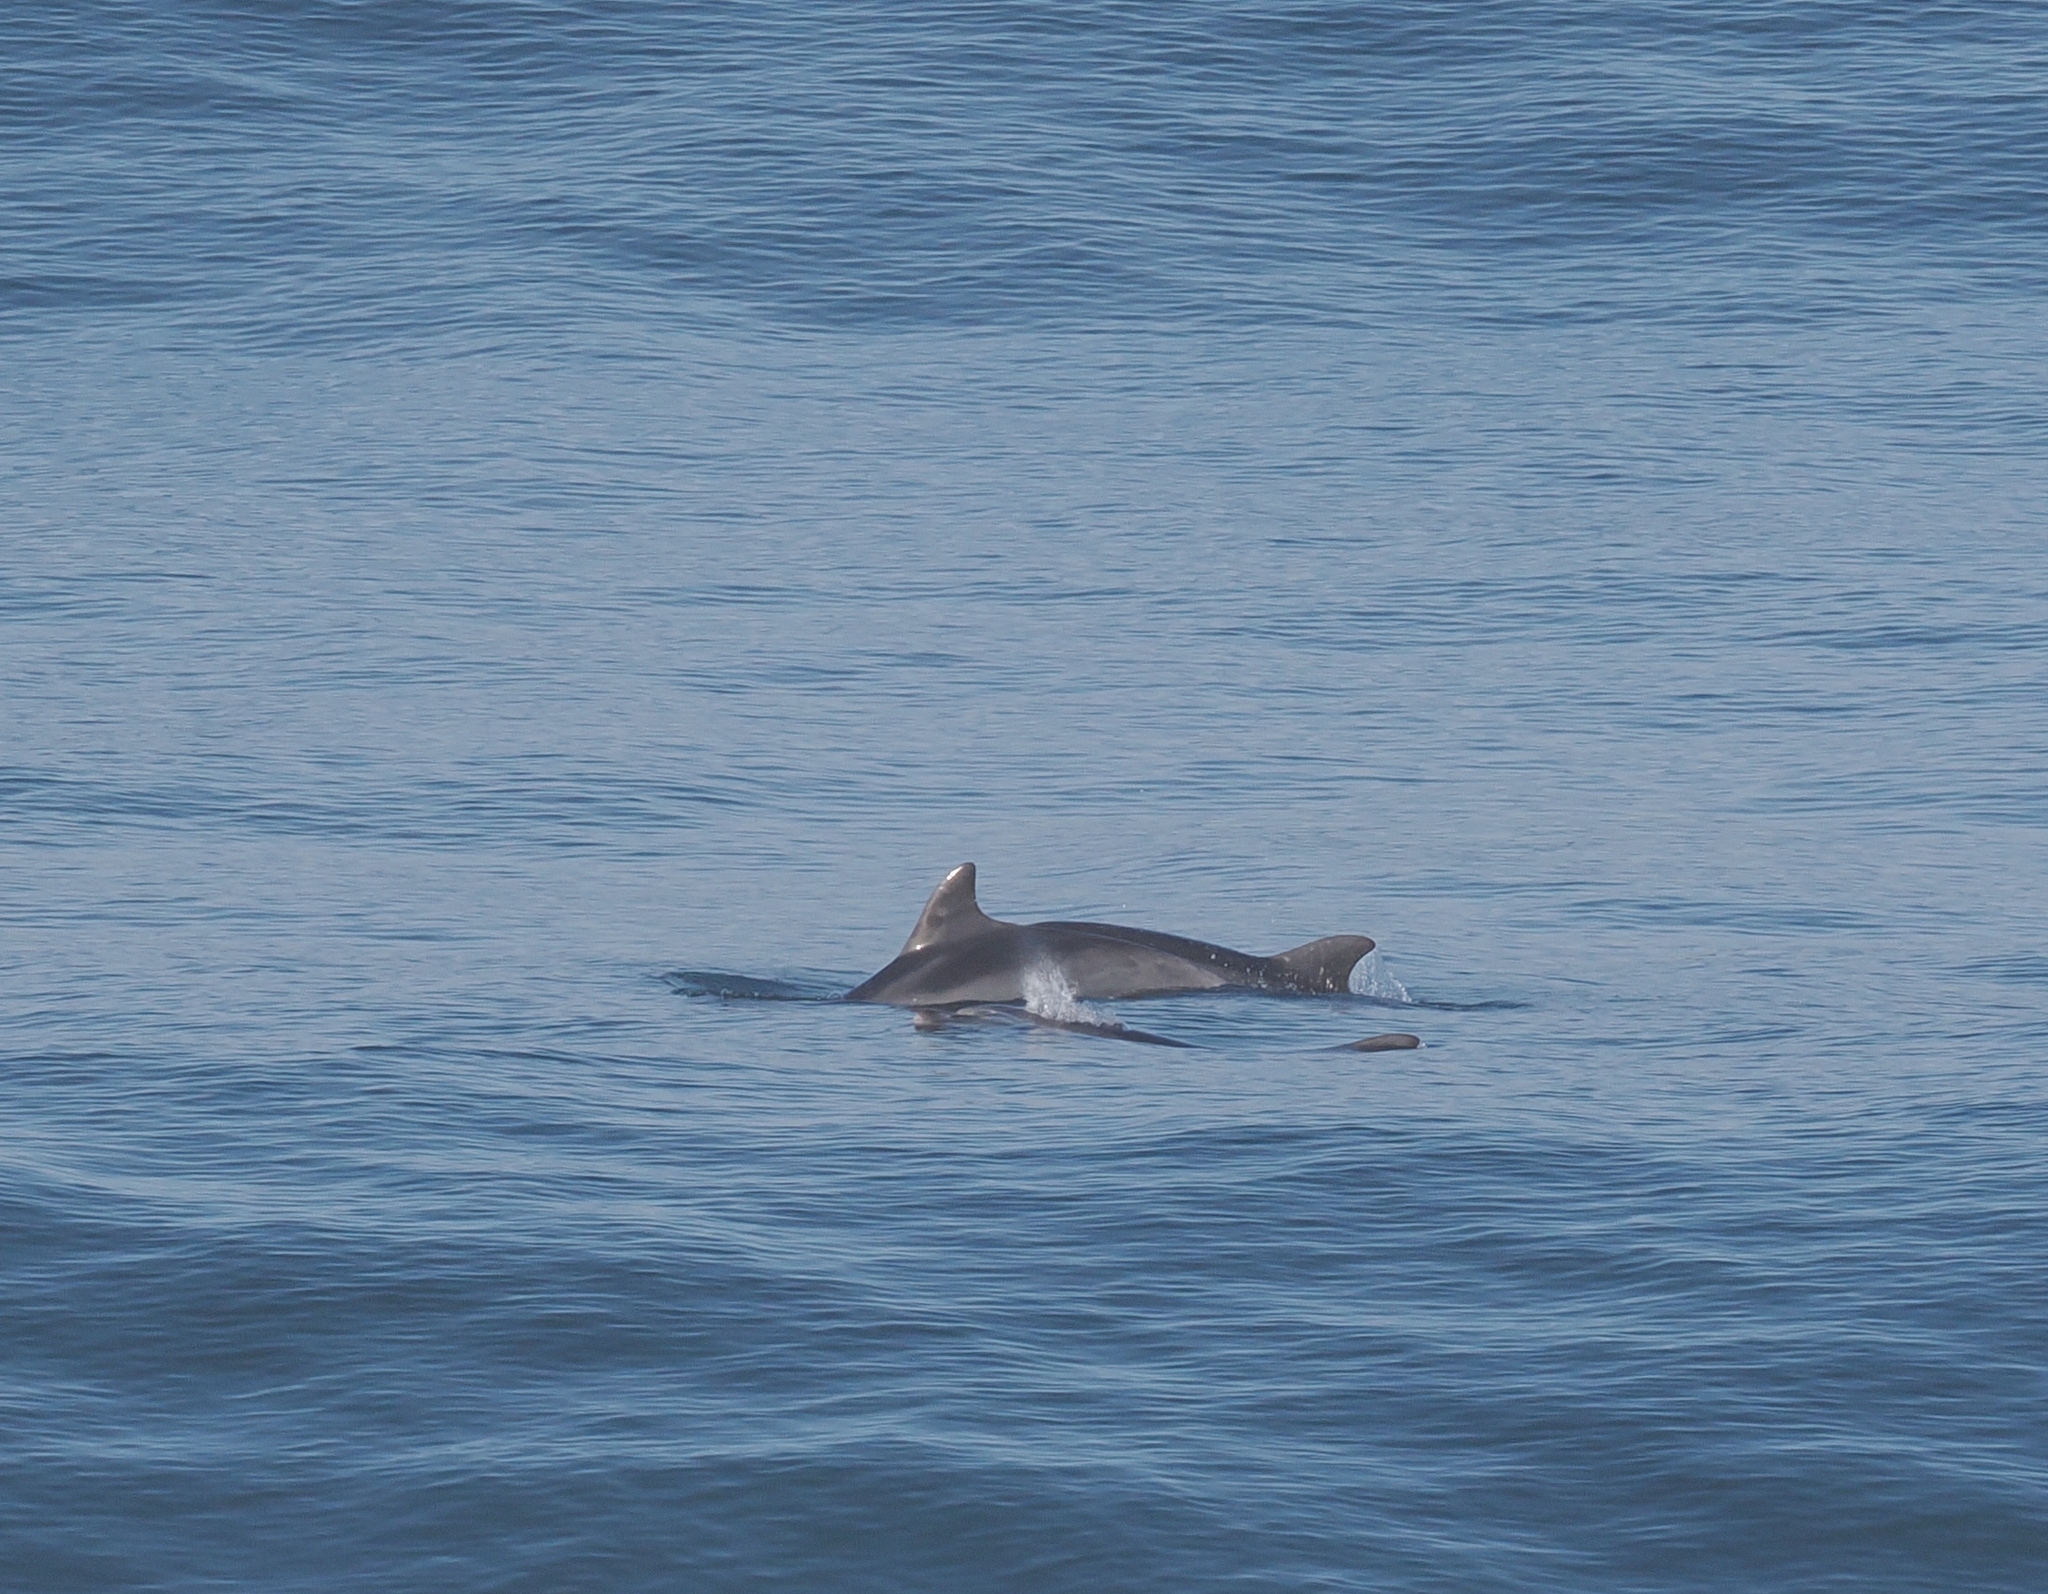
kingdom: Animalia
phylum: Chordata
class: Mammalia
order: Cetacea
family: Delphinidae
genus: Tursiops
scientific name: Tursiops truncatus
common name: Bottlenose dolphin
